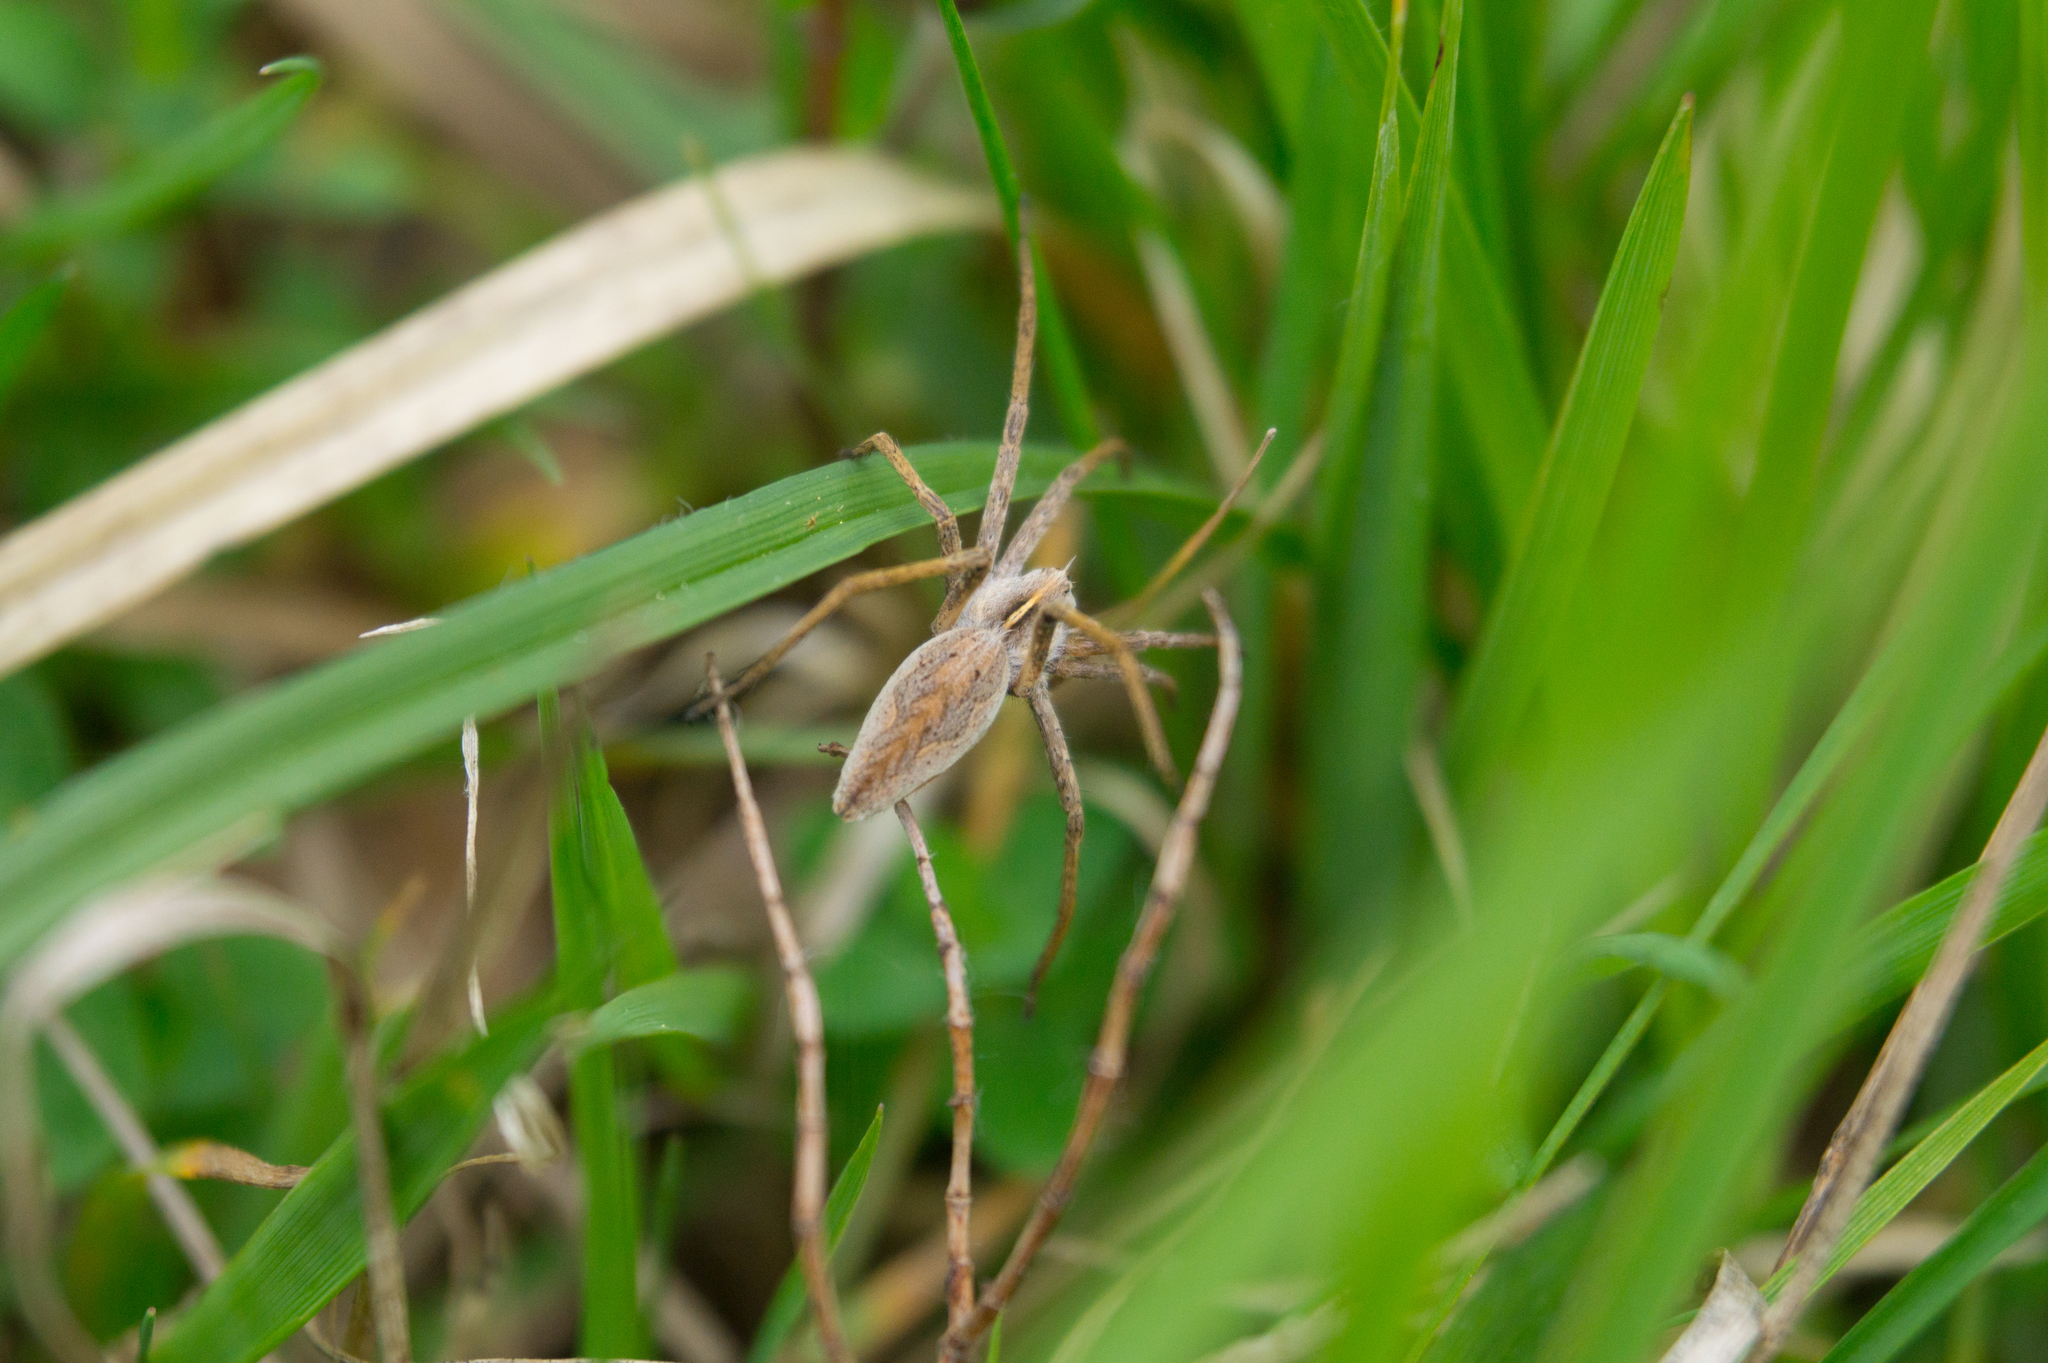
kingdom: Animalia
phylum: Arthropoda
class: Arachnida
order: Araneae
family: Pisauridae
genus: Pisaura
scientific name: Pisaura mirabilis
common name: Tent spider
